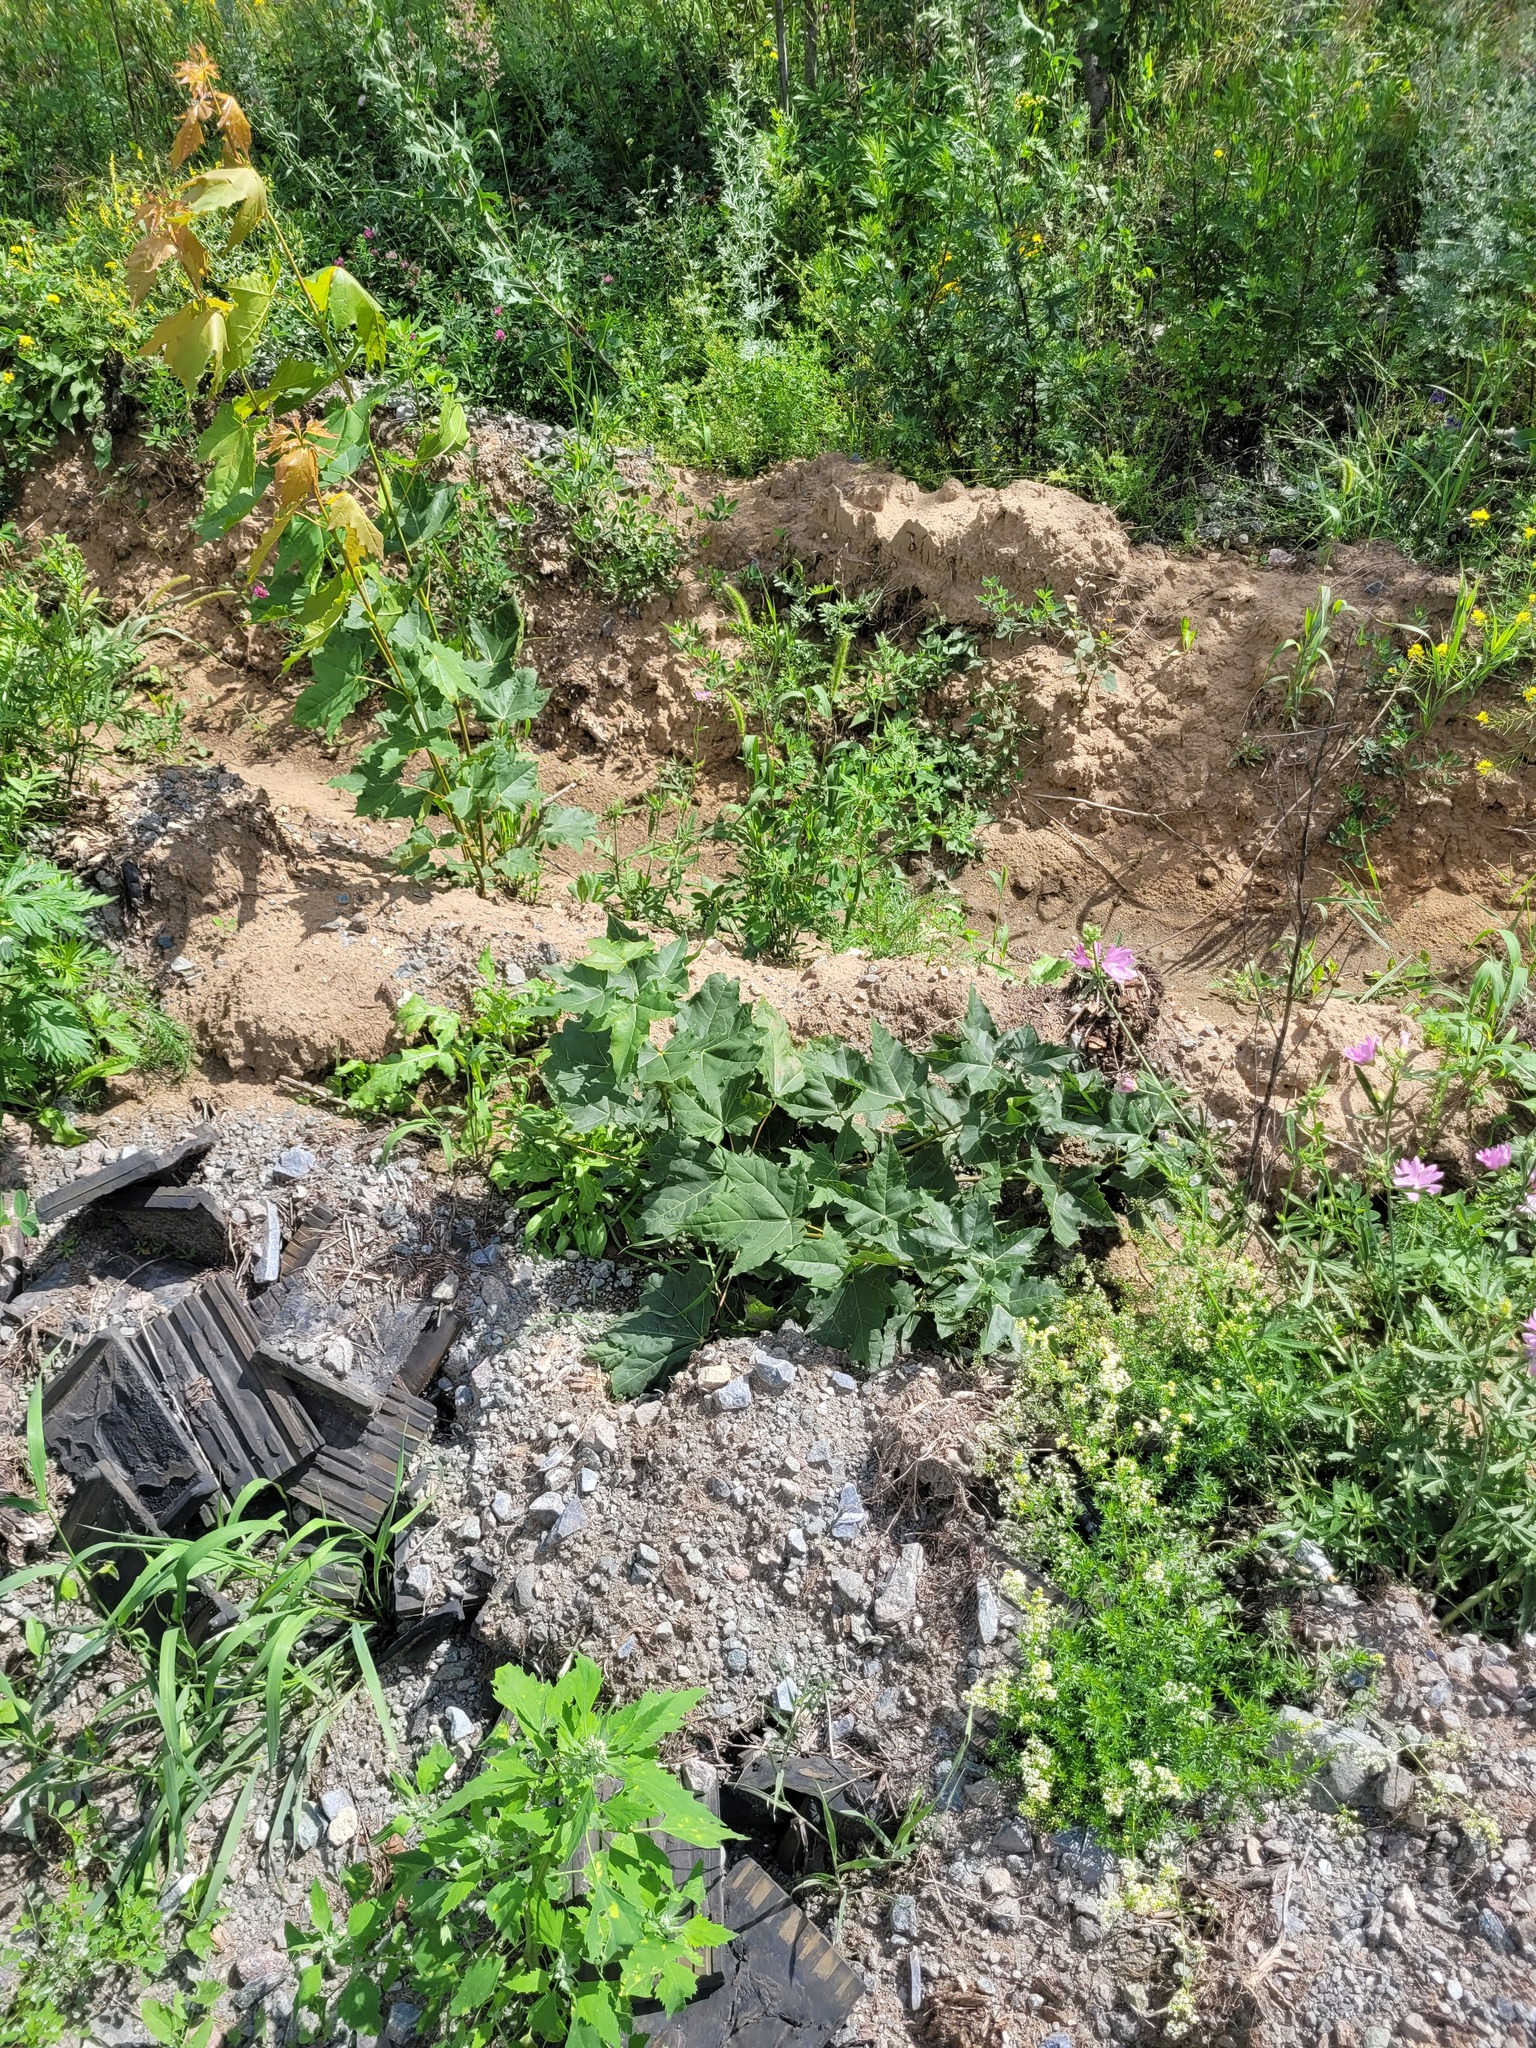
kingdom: Plantae
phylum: Tracheophyta
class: Magnoliopsida
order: Sapindales
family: Sapindaceae
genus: Acer
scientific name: Acer platanoides
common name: Norway maple
